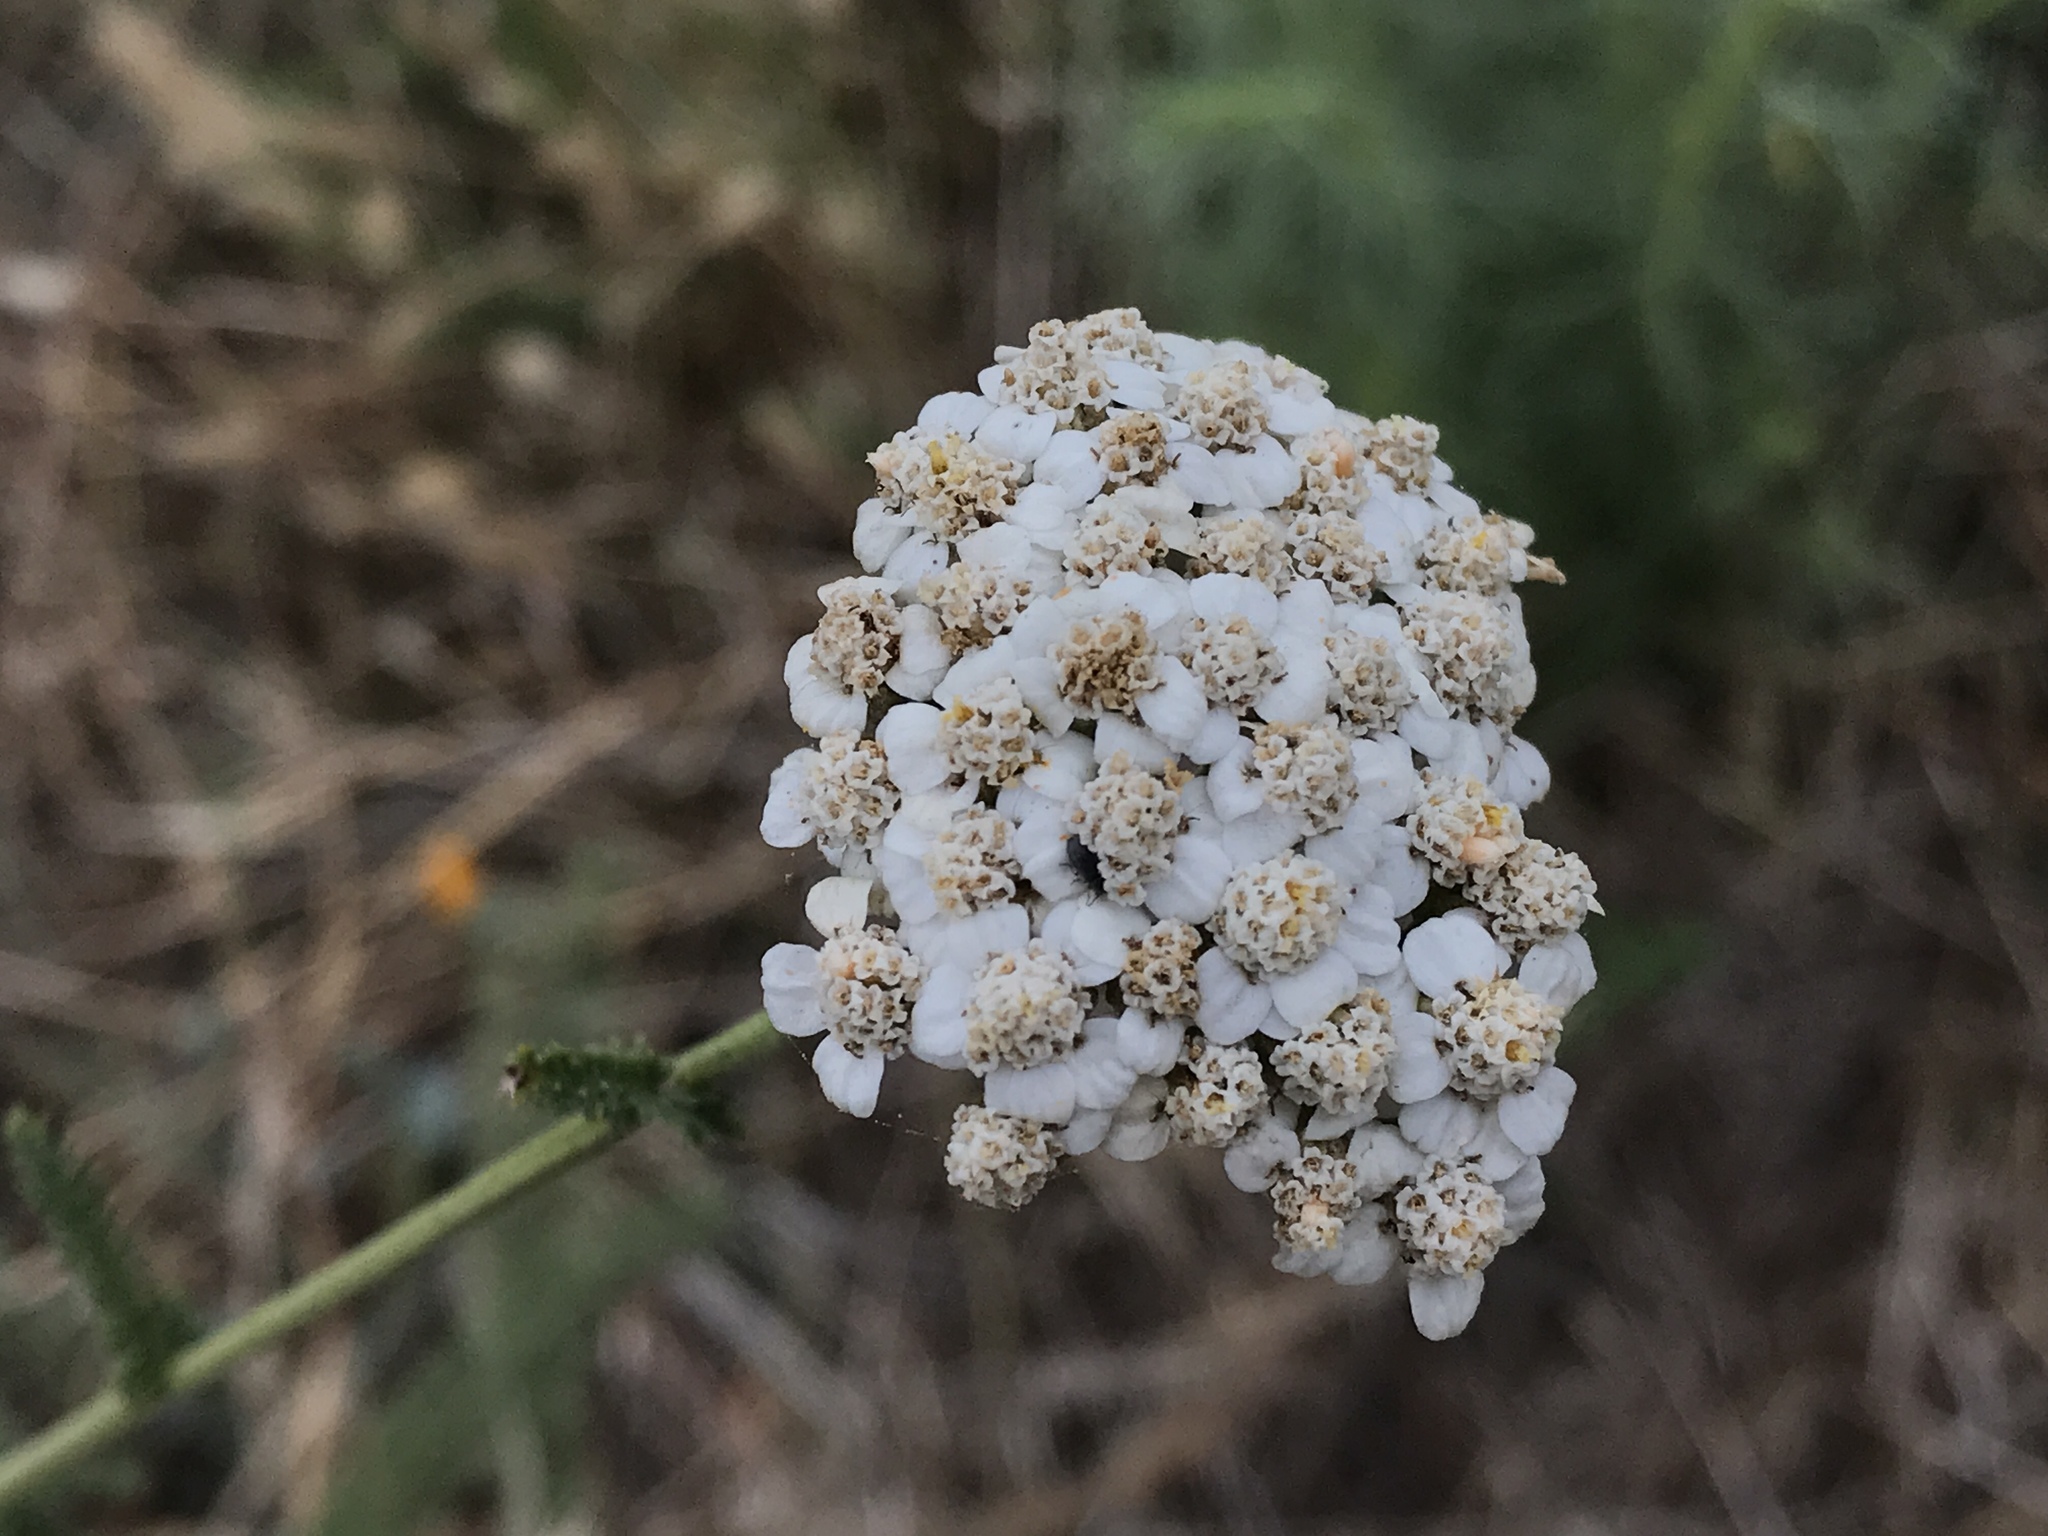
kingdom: Plantae
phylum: Tracheophyta
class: Magnoliopsida
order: Asterales
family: Asteraceae
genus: Achillea
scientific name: Achillea millefolium
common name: Yarrow
